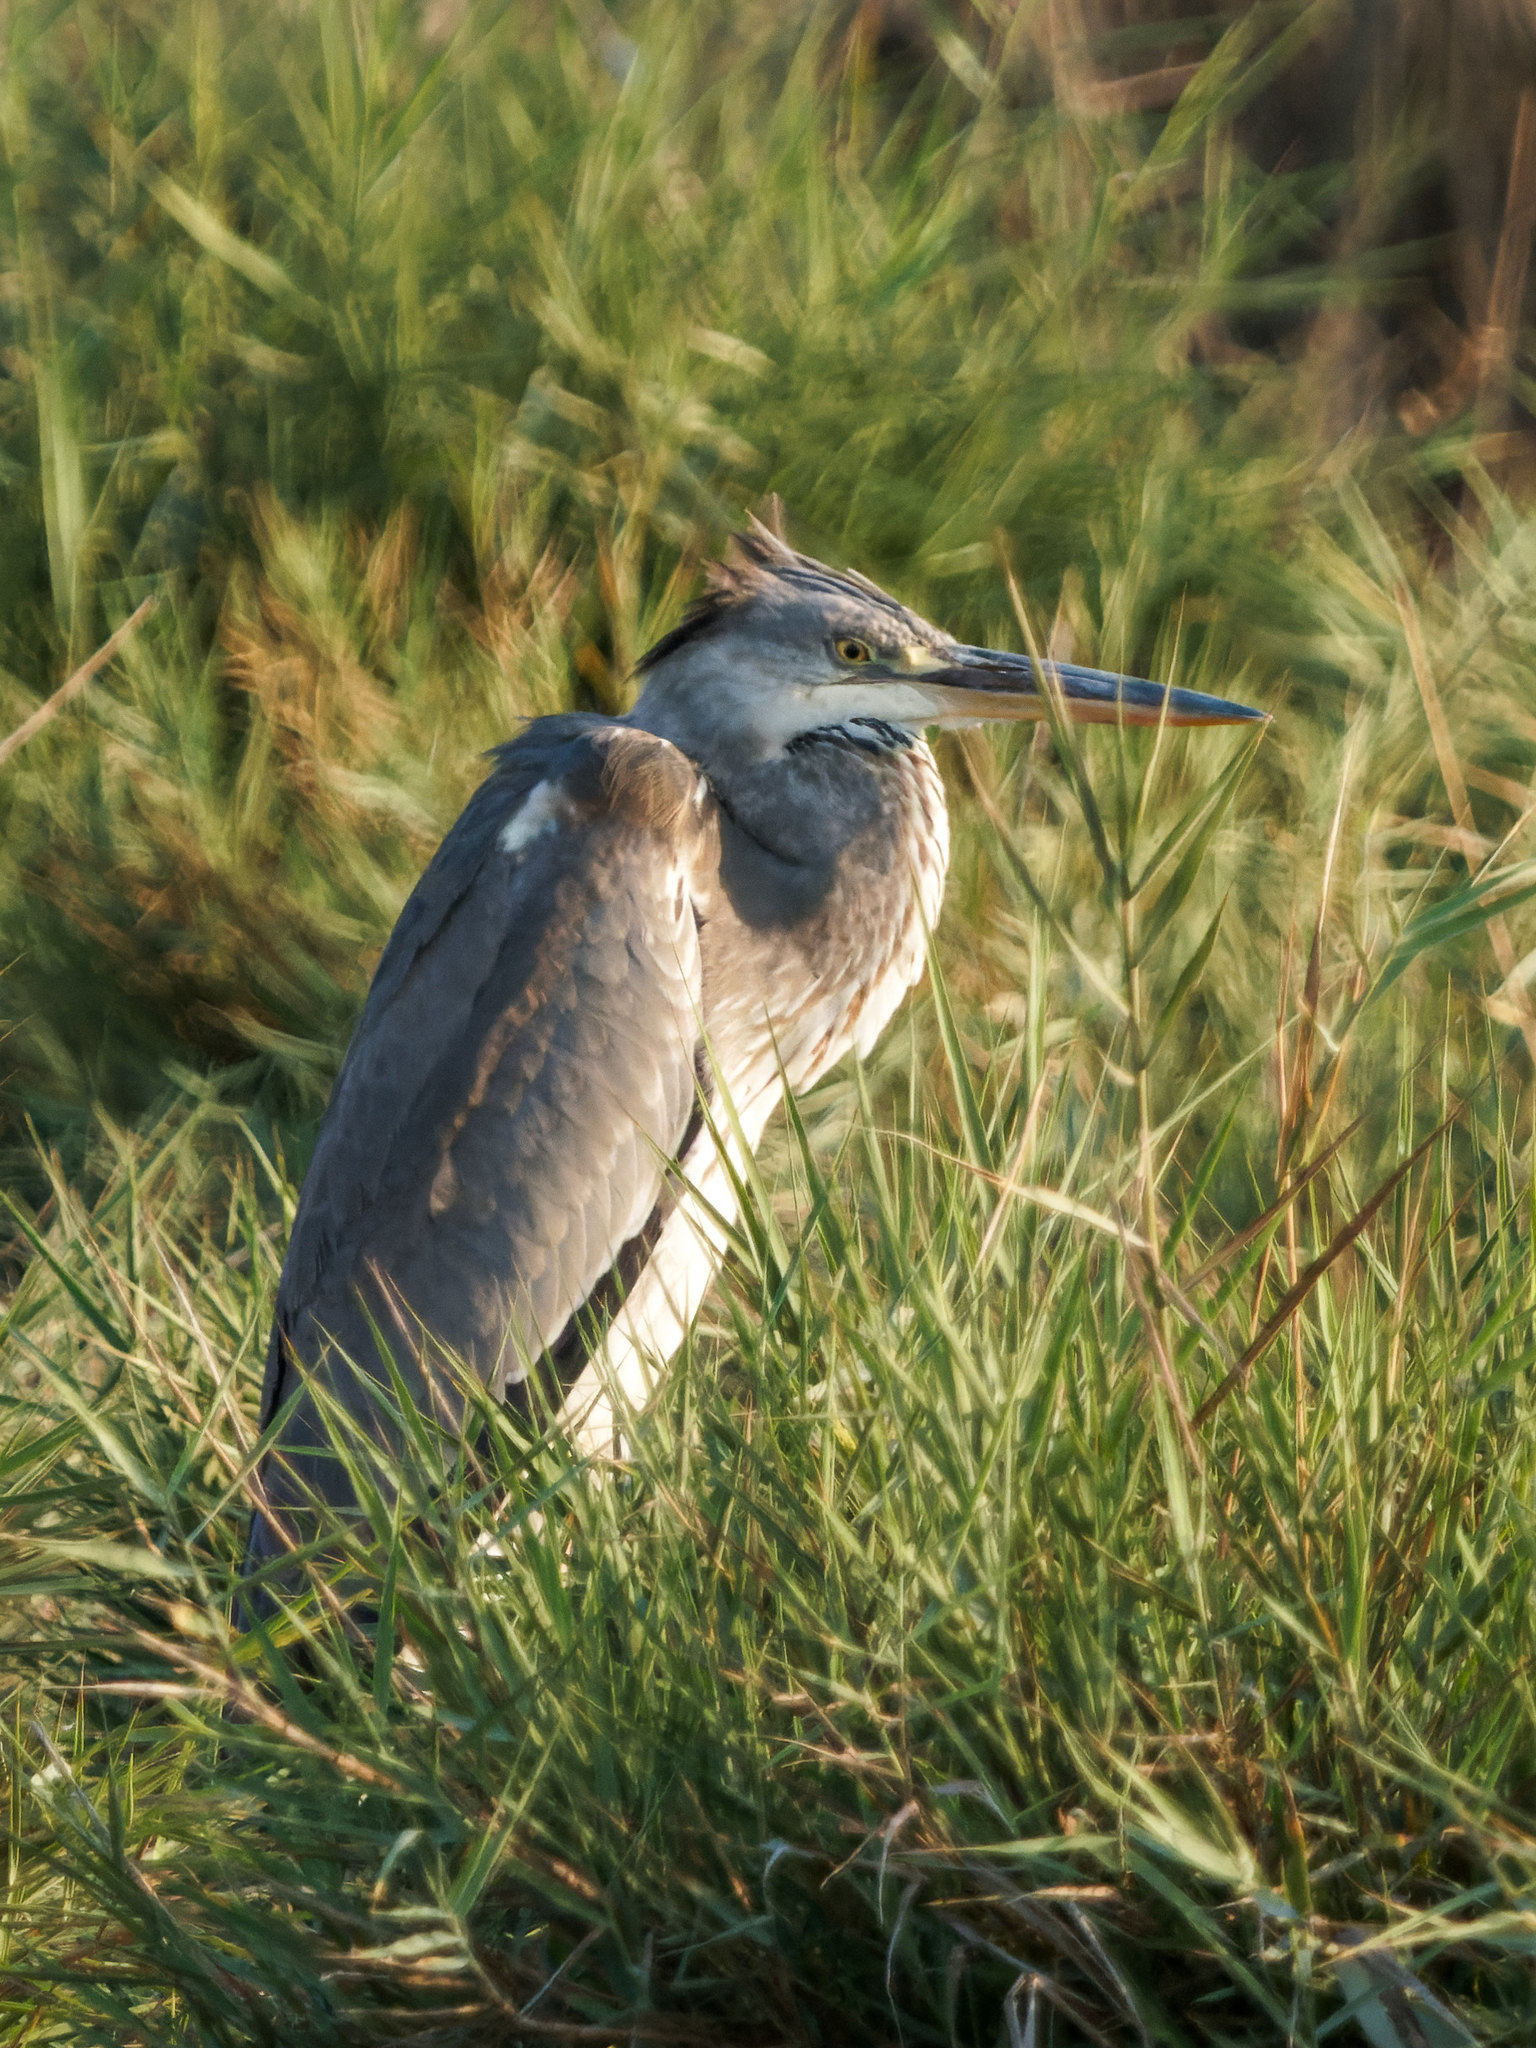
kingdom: Animalia
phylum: Chordata
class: Aves
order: Pelecaniformes
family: Ardeidae
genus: Ardea
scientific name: Ardea cinerea
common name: Grey heron
